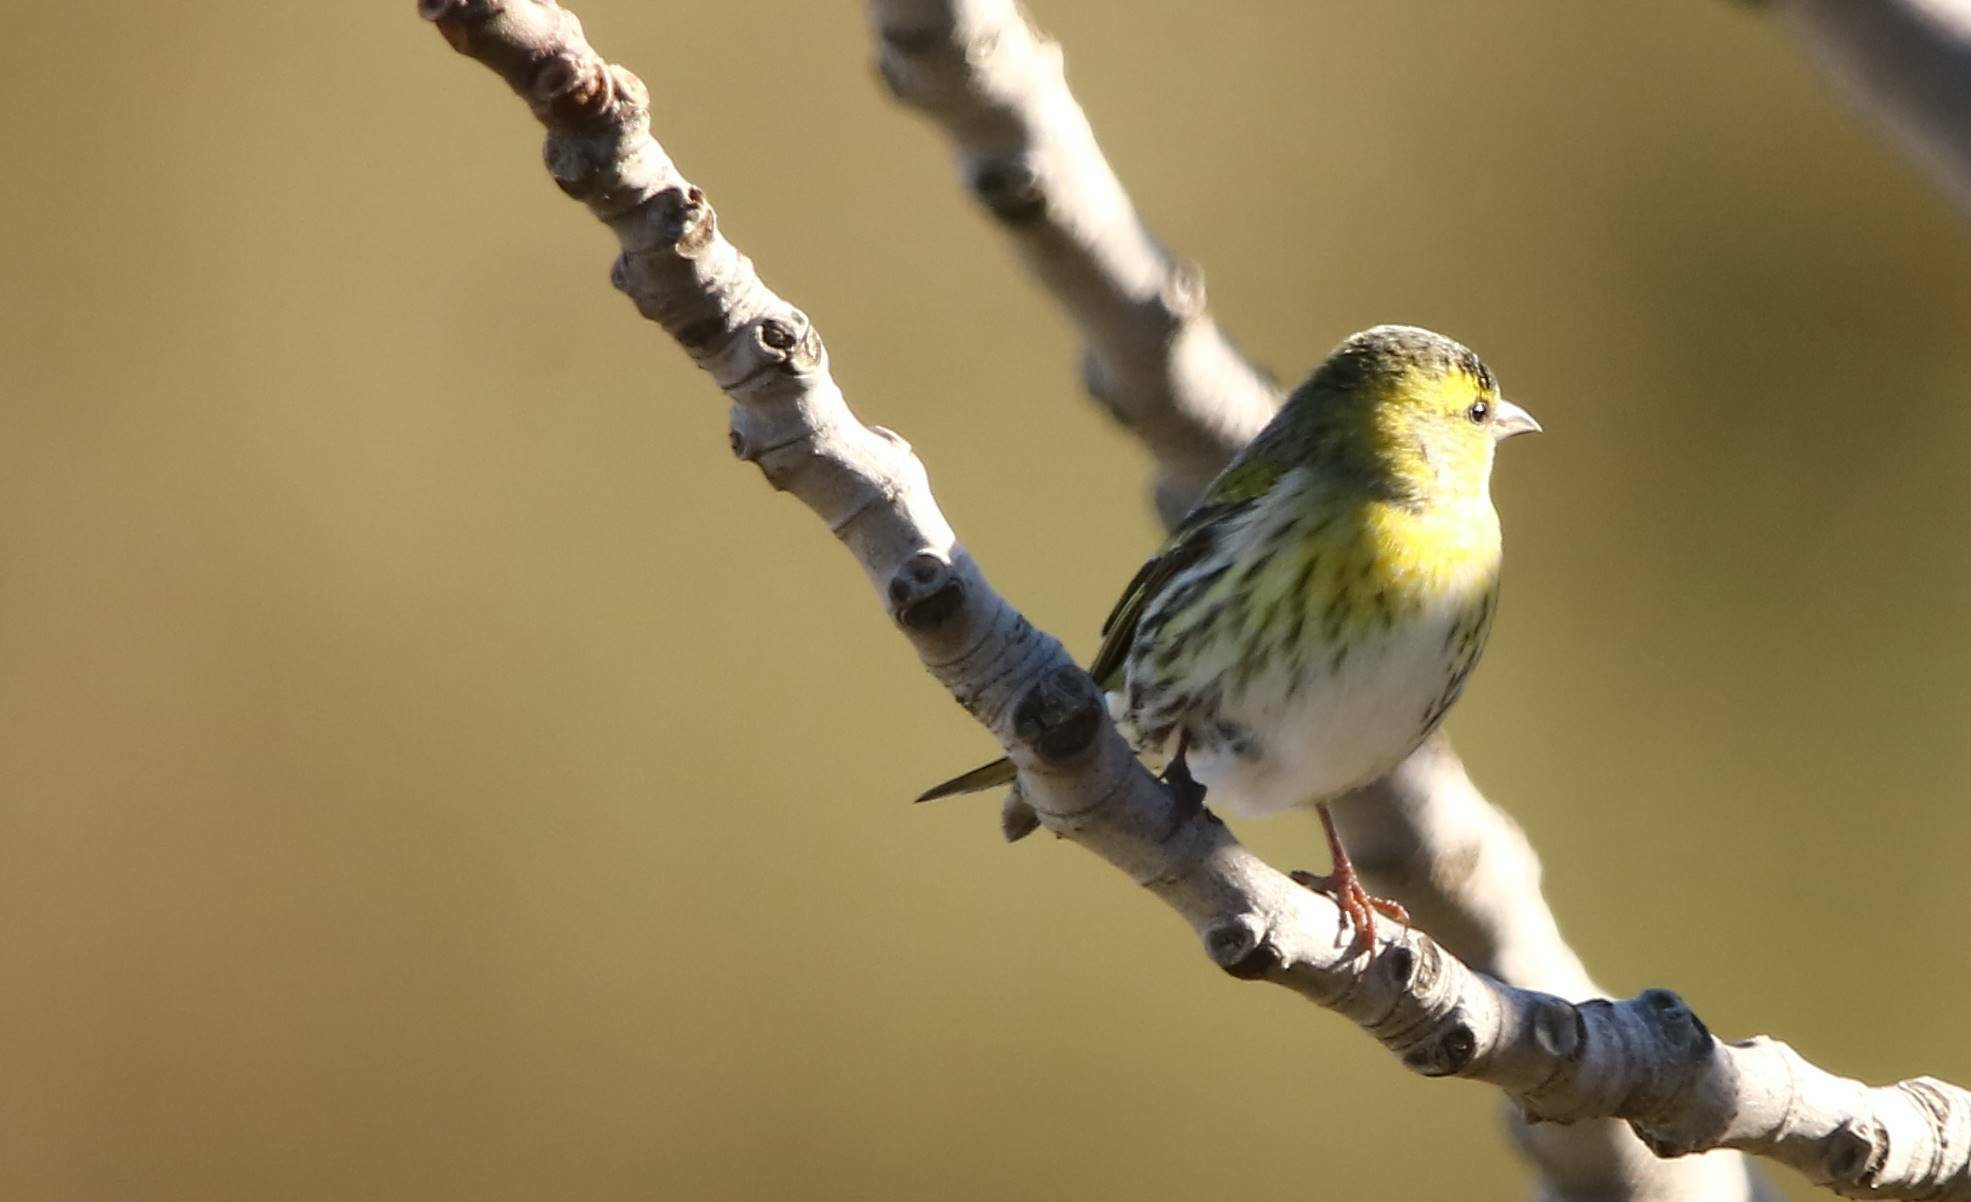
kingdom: Animalia
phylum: Chordata
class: Aves
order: Passeriformes
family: Fringillidae
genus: Spinus
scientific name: Spinus spinus
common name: Eurasian siskin
